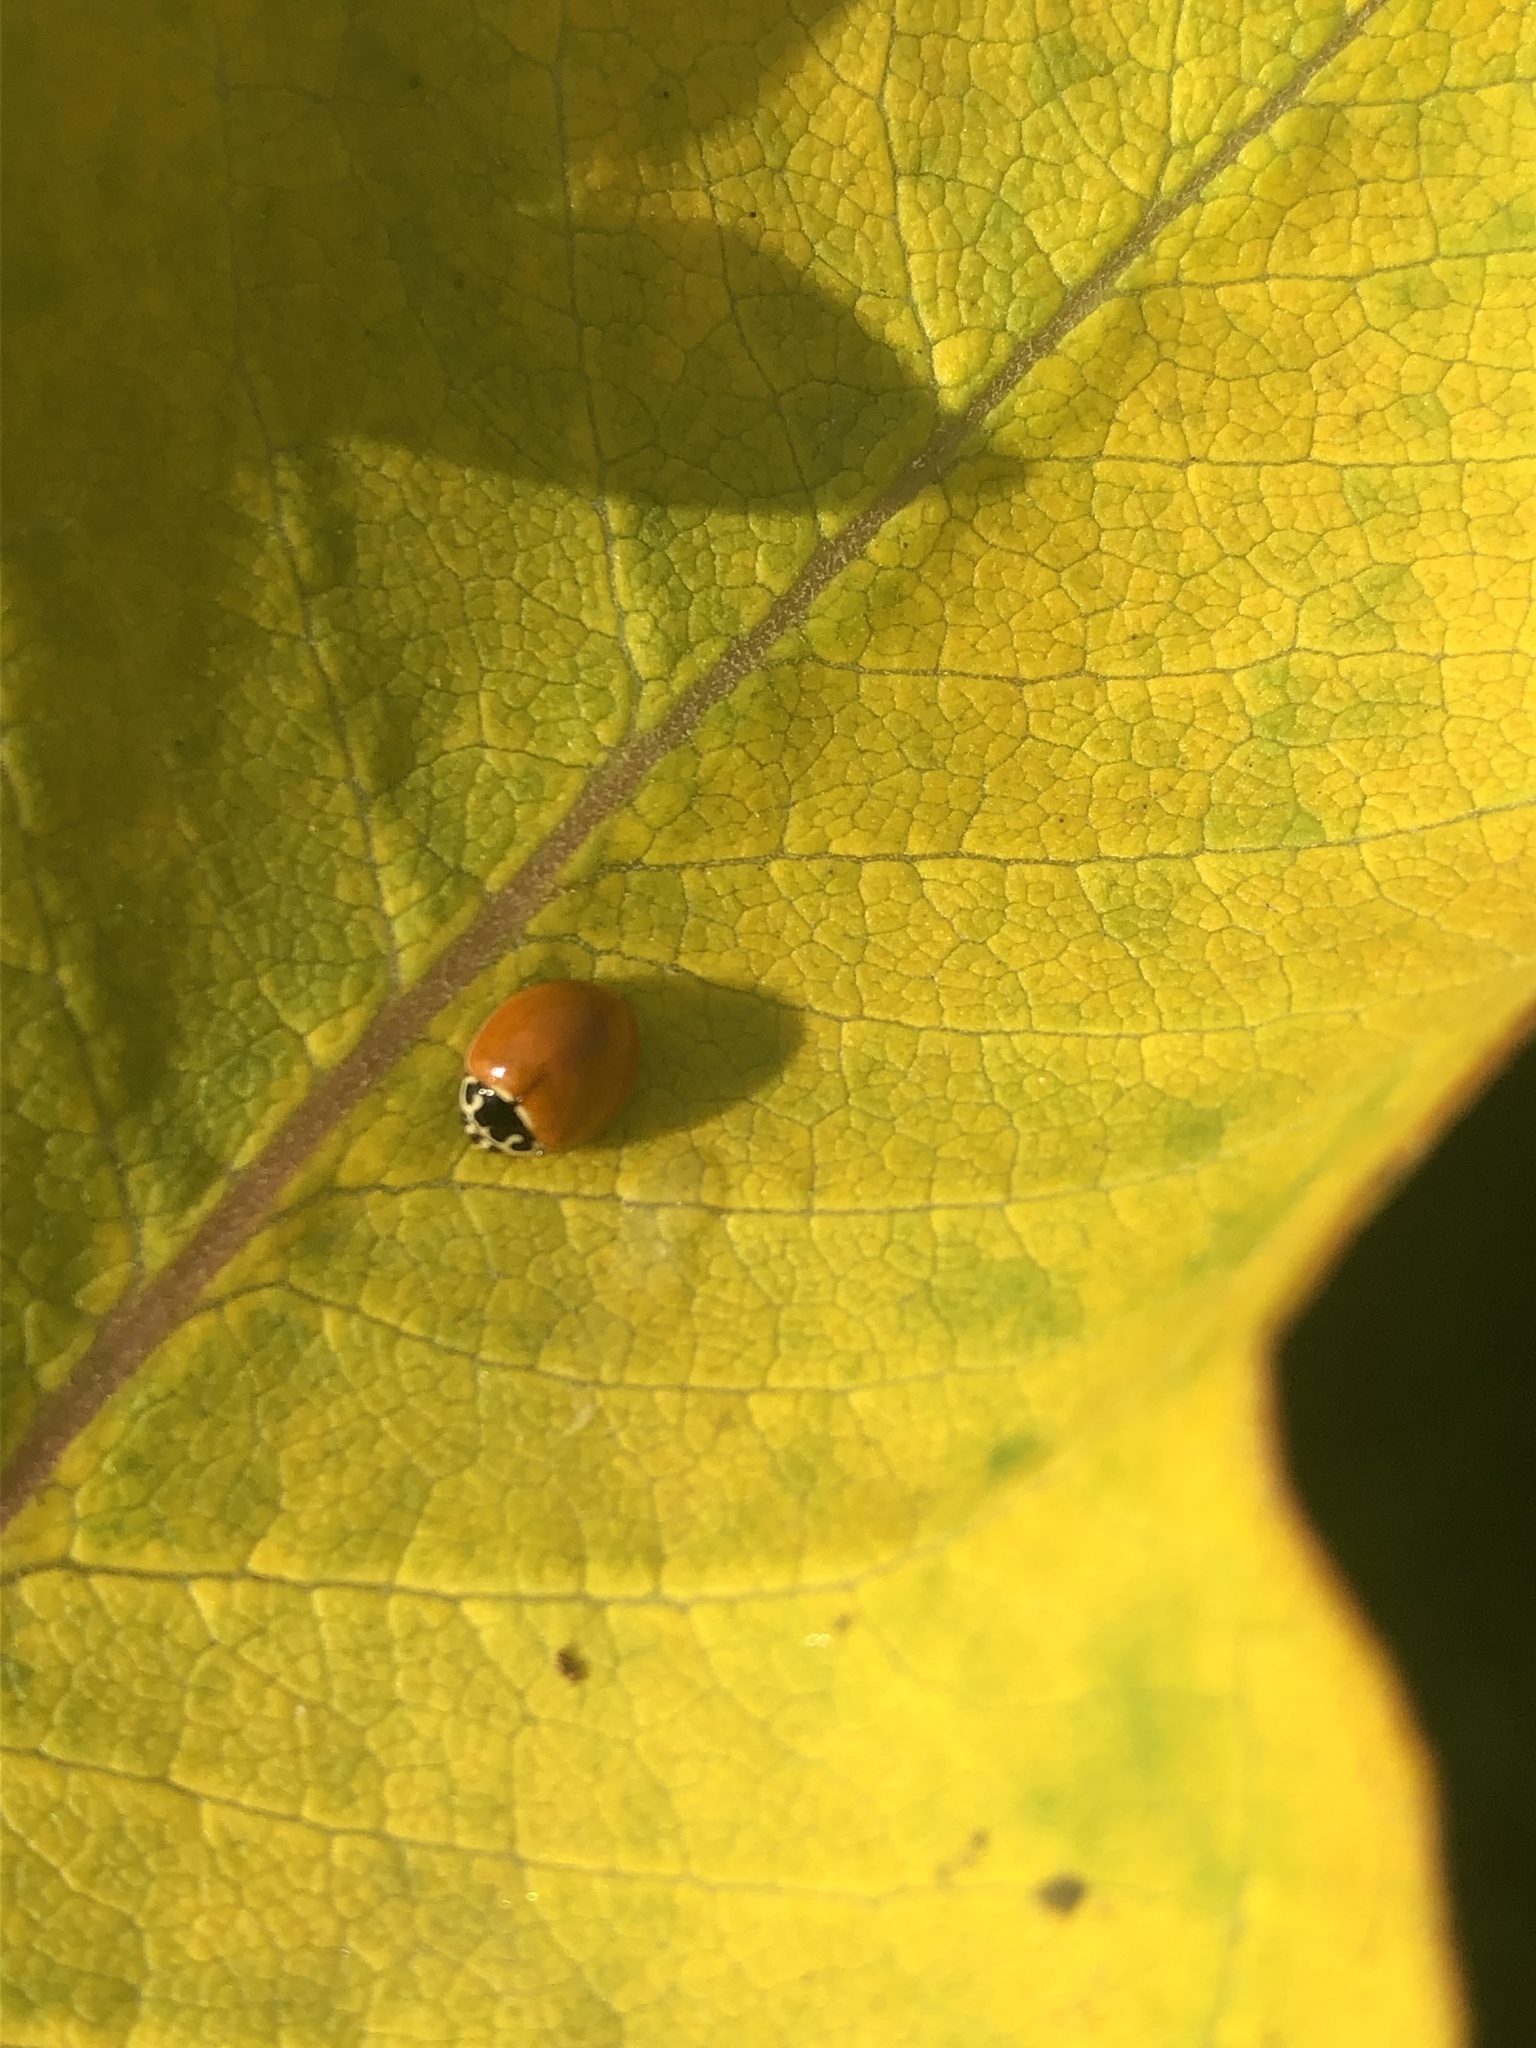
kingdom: Animalia
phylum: Arthropoda
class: Insecta
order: Coleoptera
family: Coccinellidae
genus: Cycloneda
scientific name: Cycloneda munda
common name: Polished lady beetle
